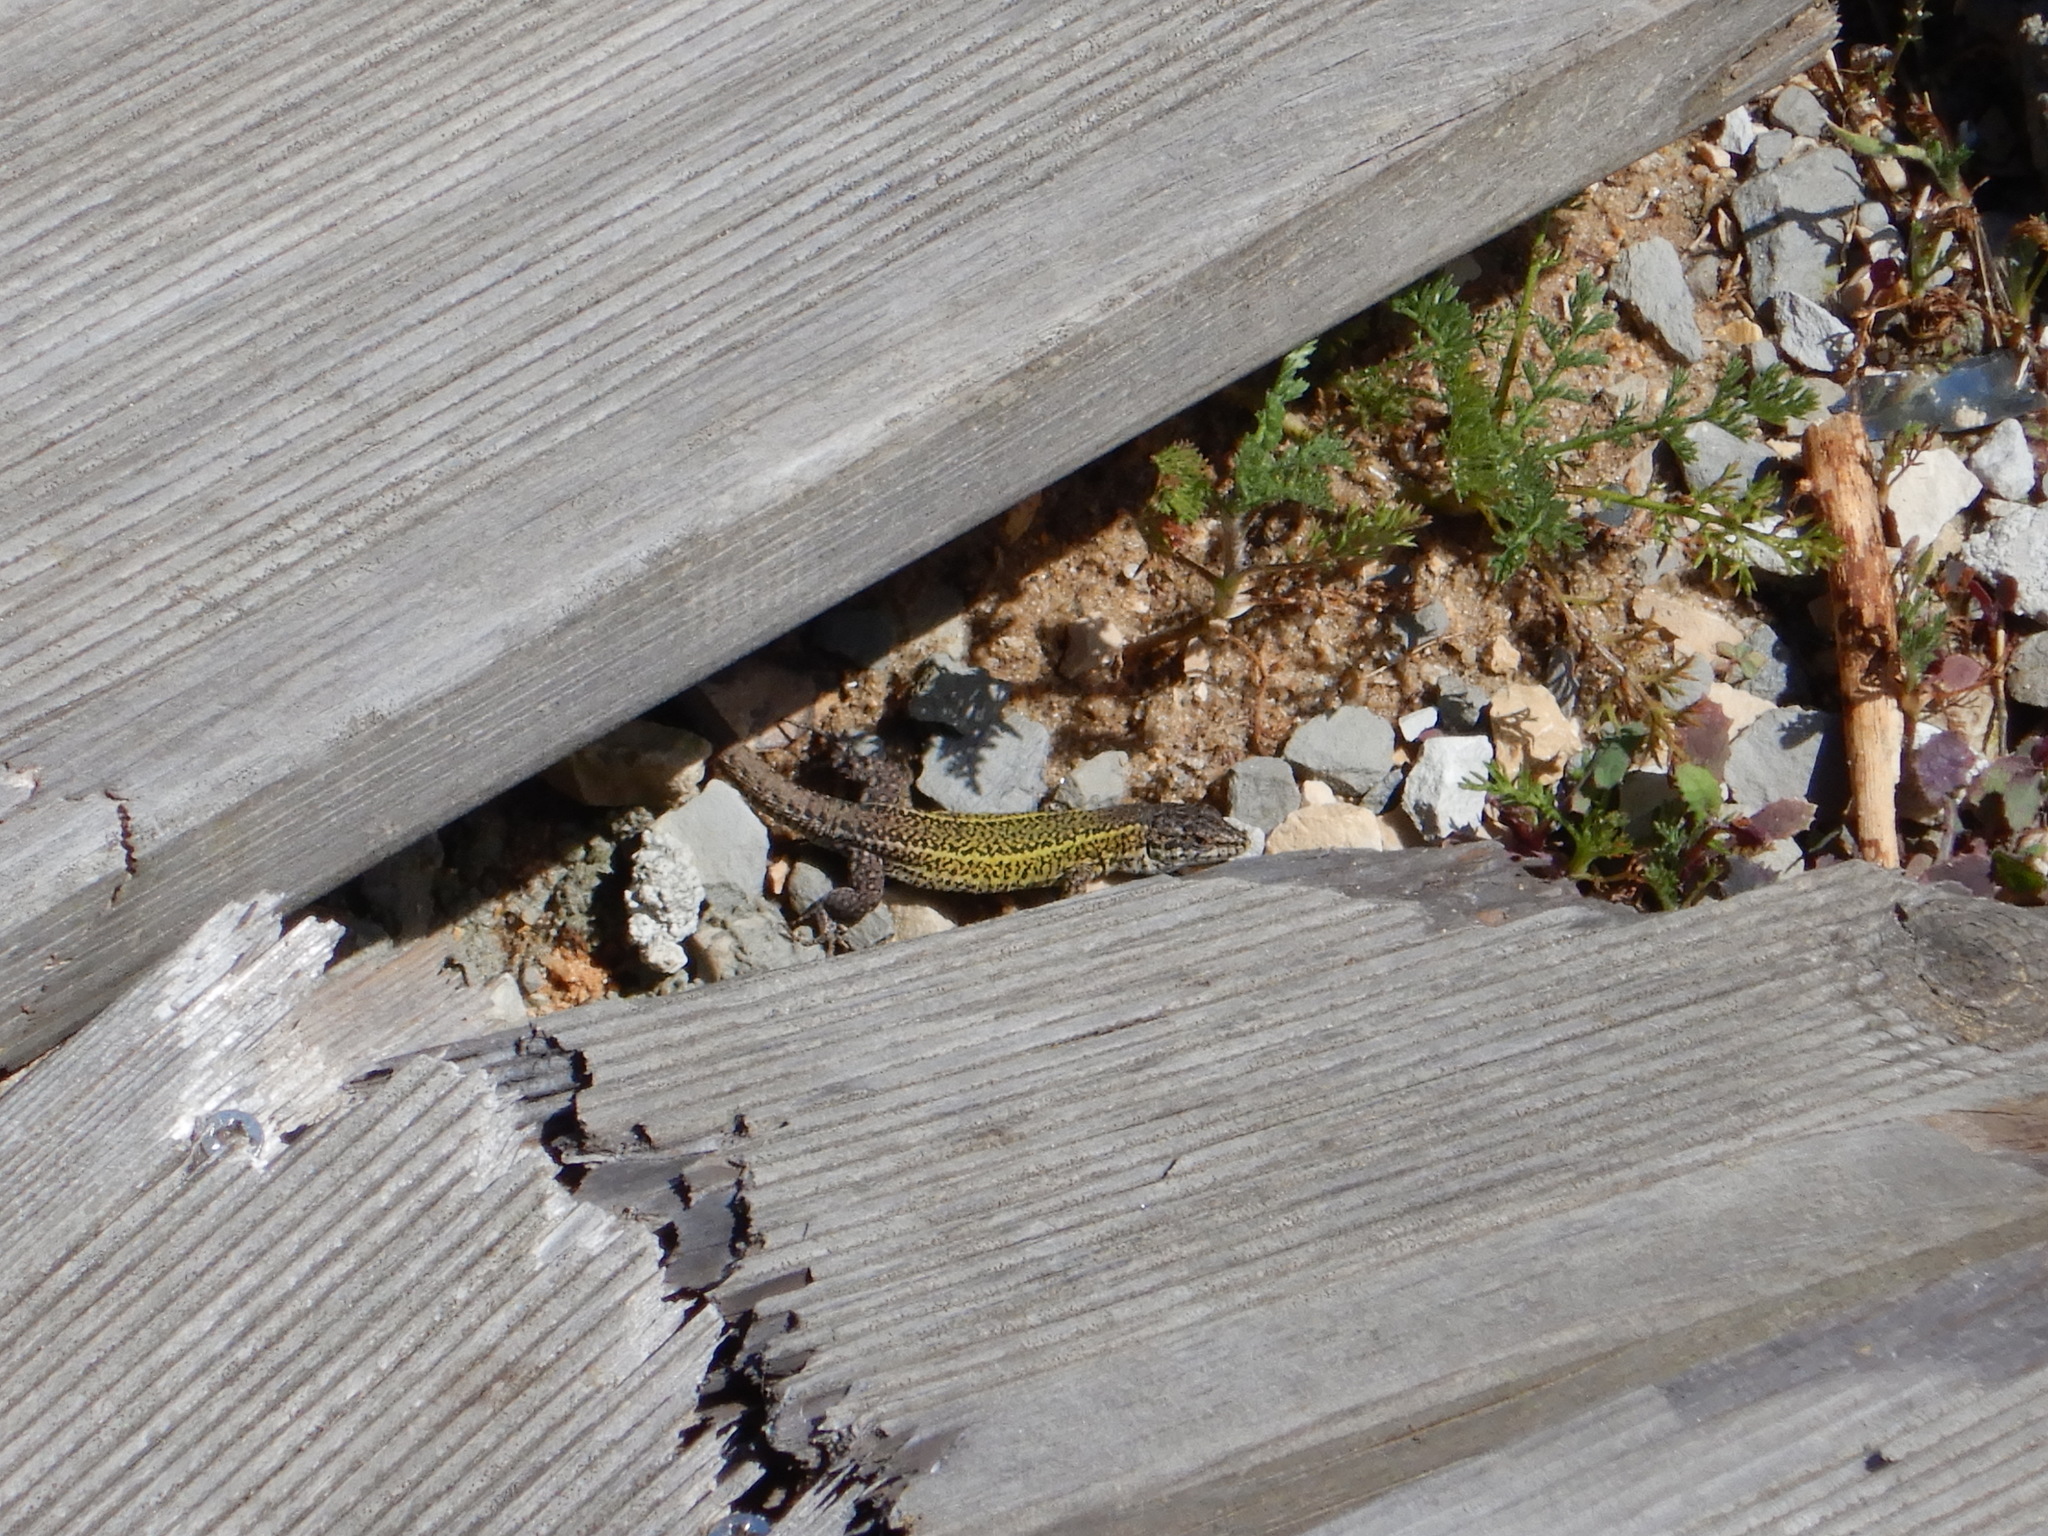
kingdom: Animalia
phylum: Chordata
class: Squamata
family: Lacertidae
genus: Podarcis
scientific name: Podarcis carbonelli
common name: Carbonelli's wall lizard
